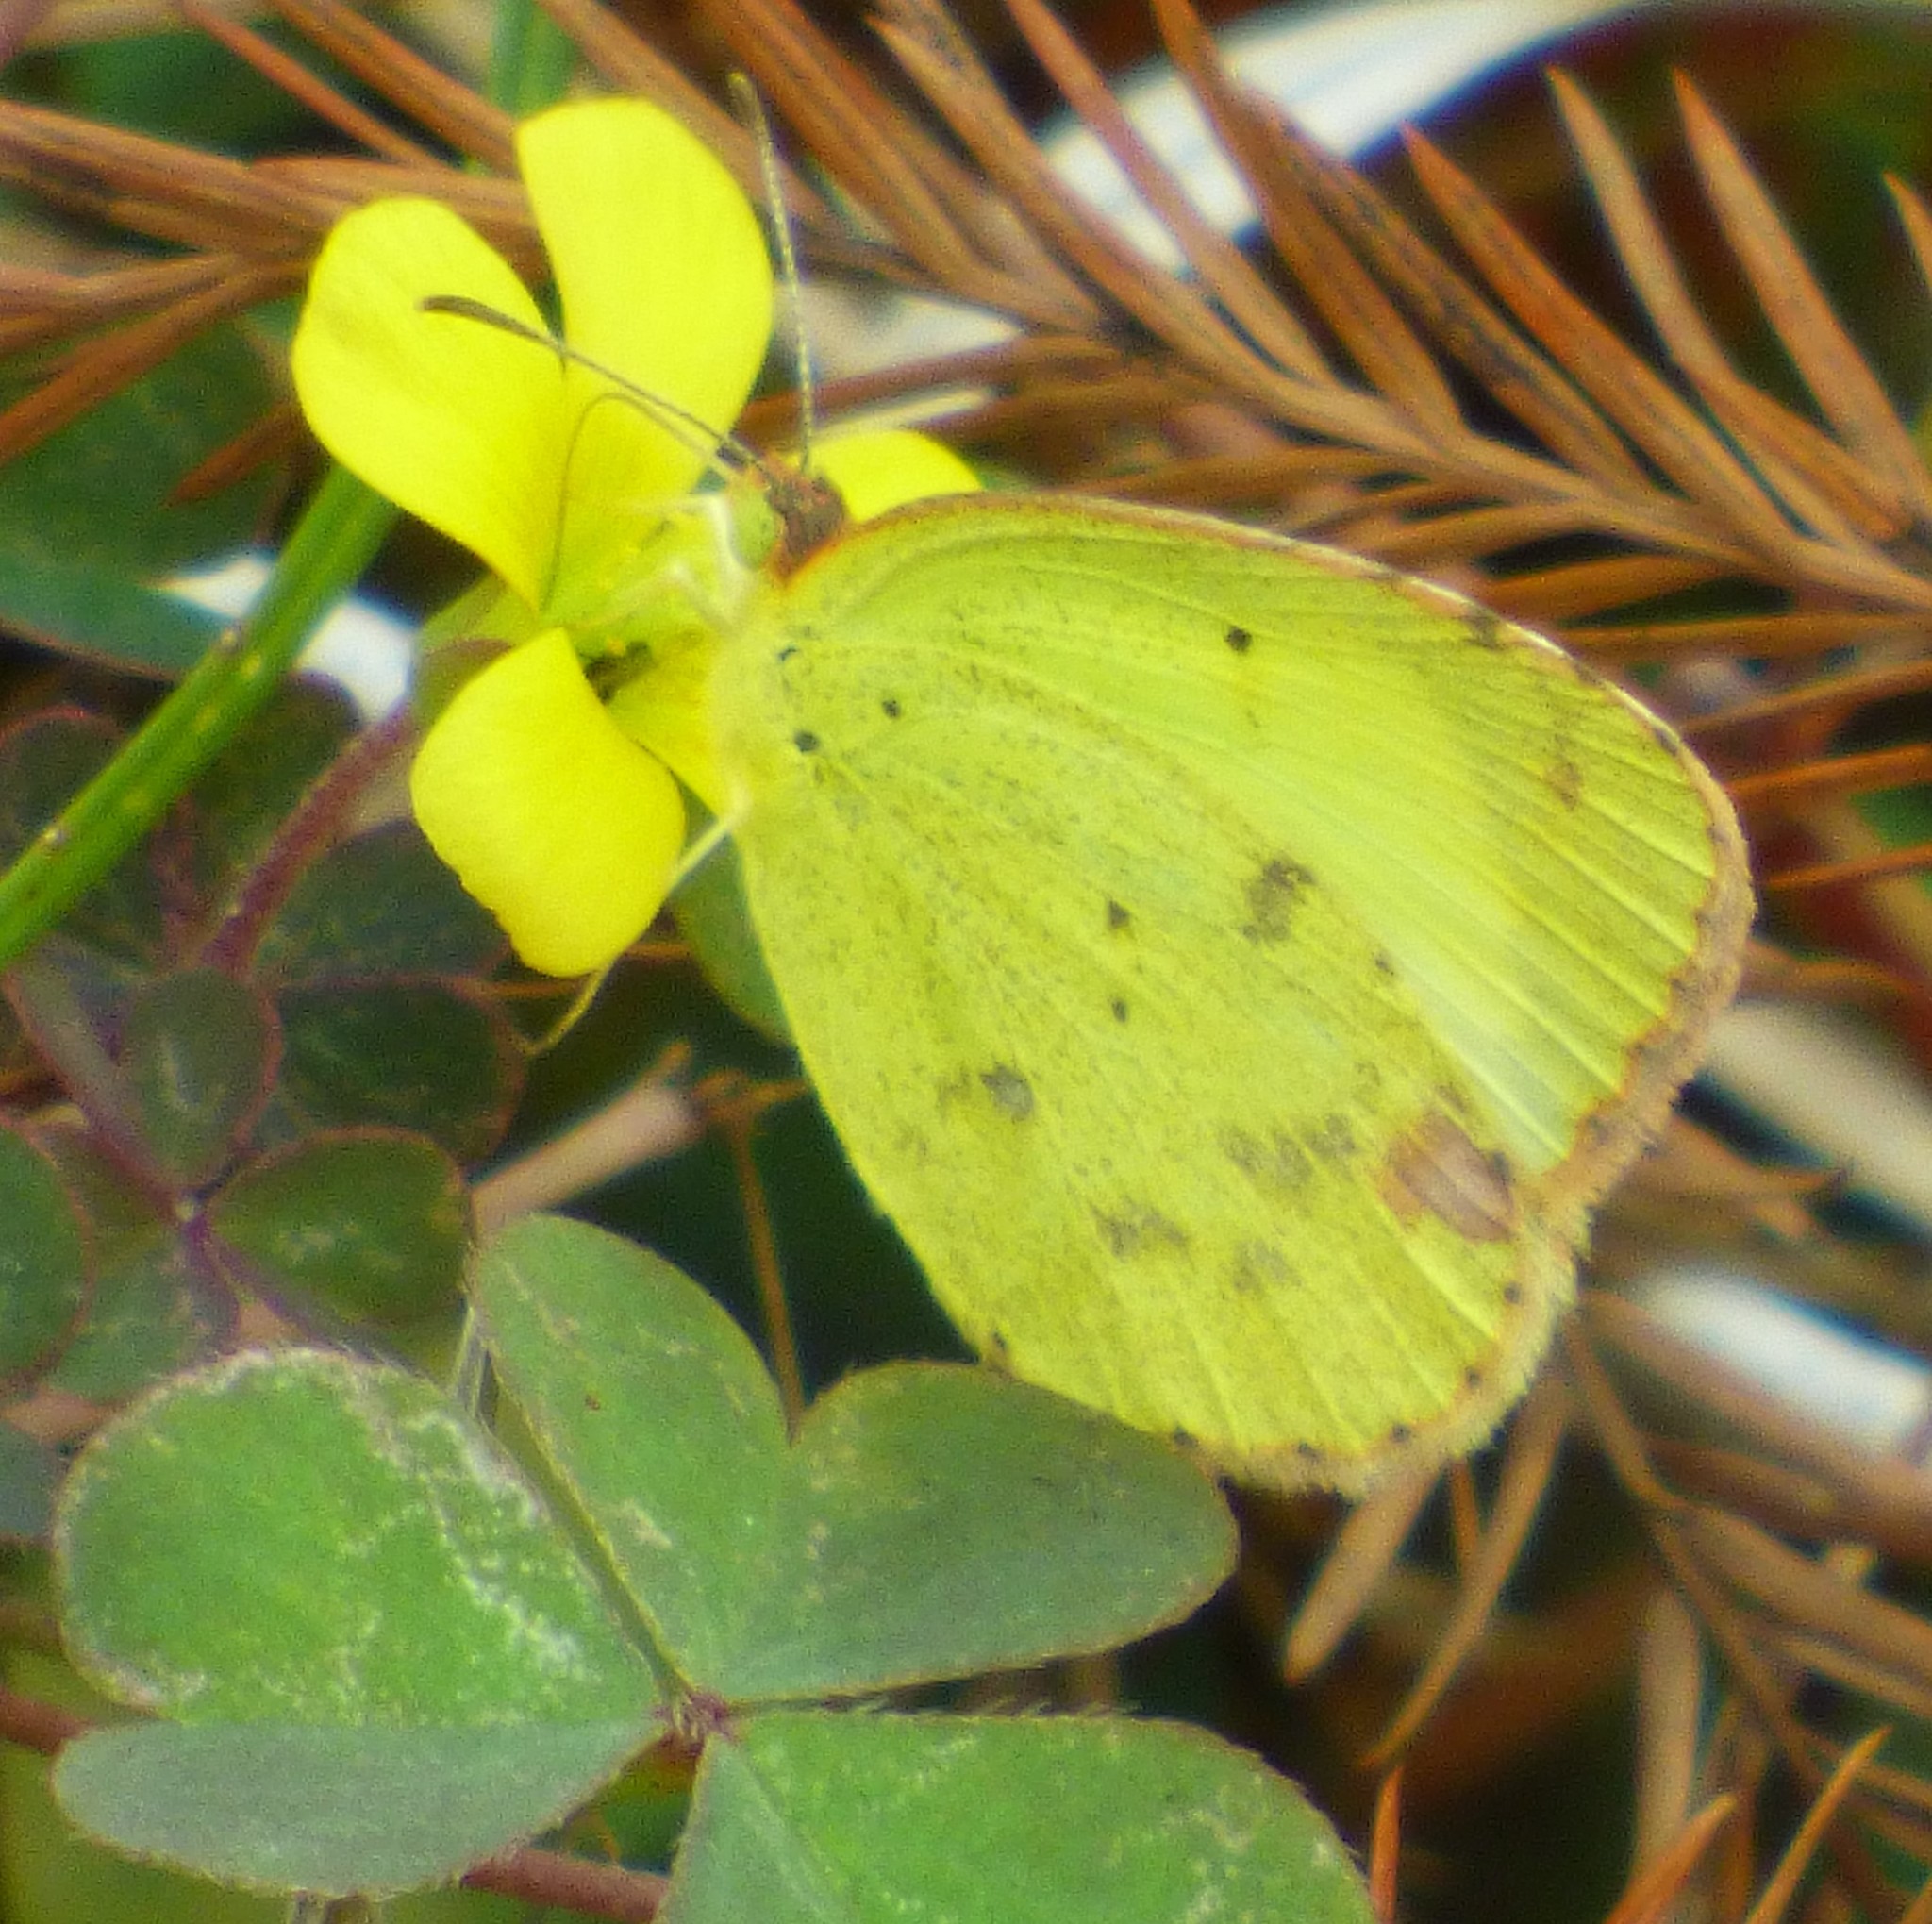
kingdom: Animalia
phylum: Arthropoda
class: Insecta
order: Lepidoptera
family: Pieridae
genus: Pyrisitia
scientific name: Pyrisitia lisa
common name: Little yellow
